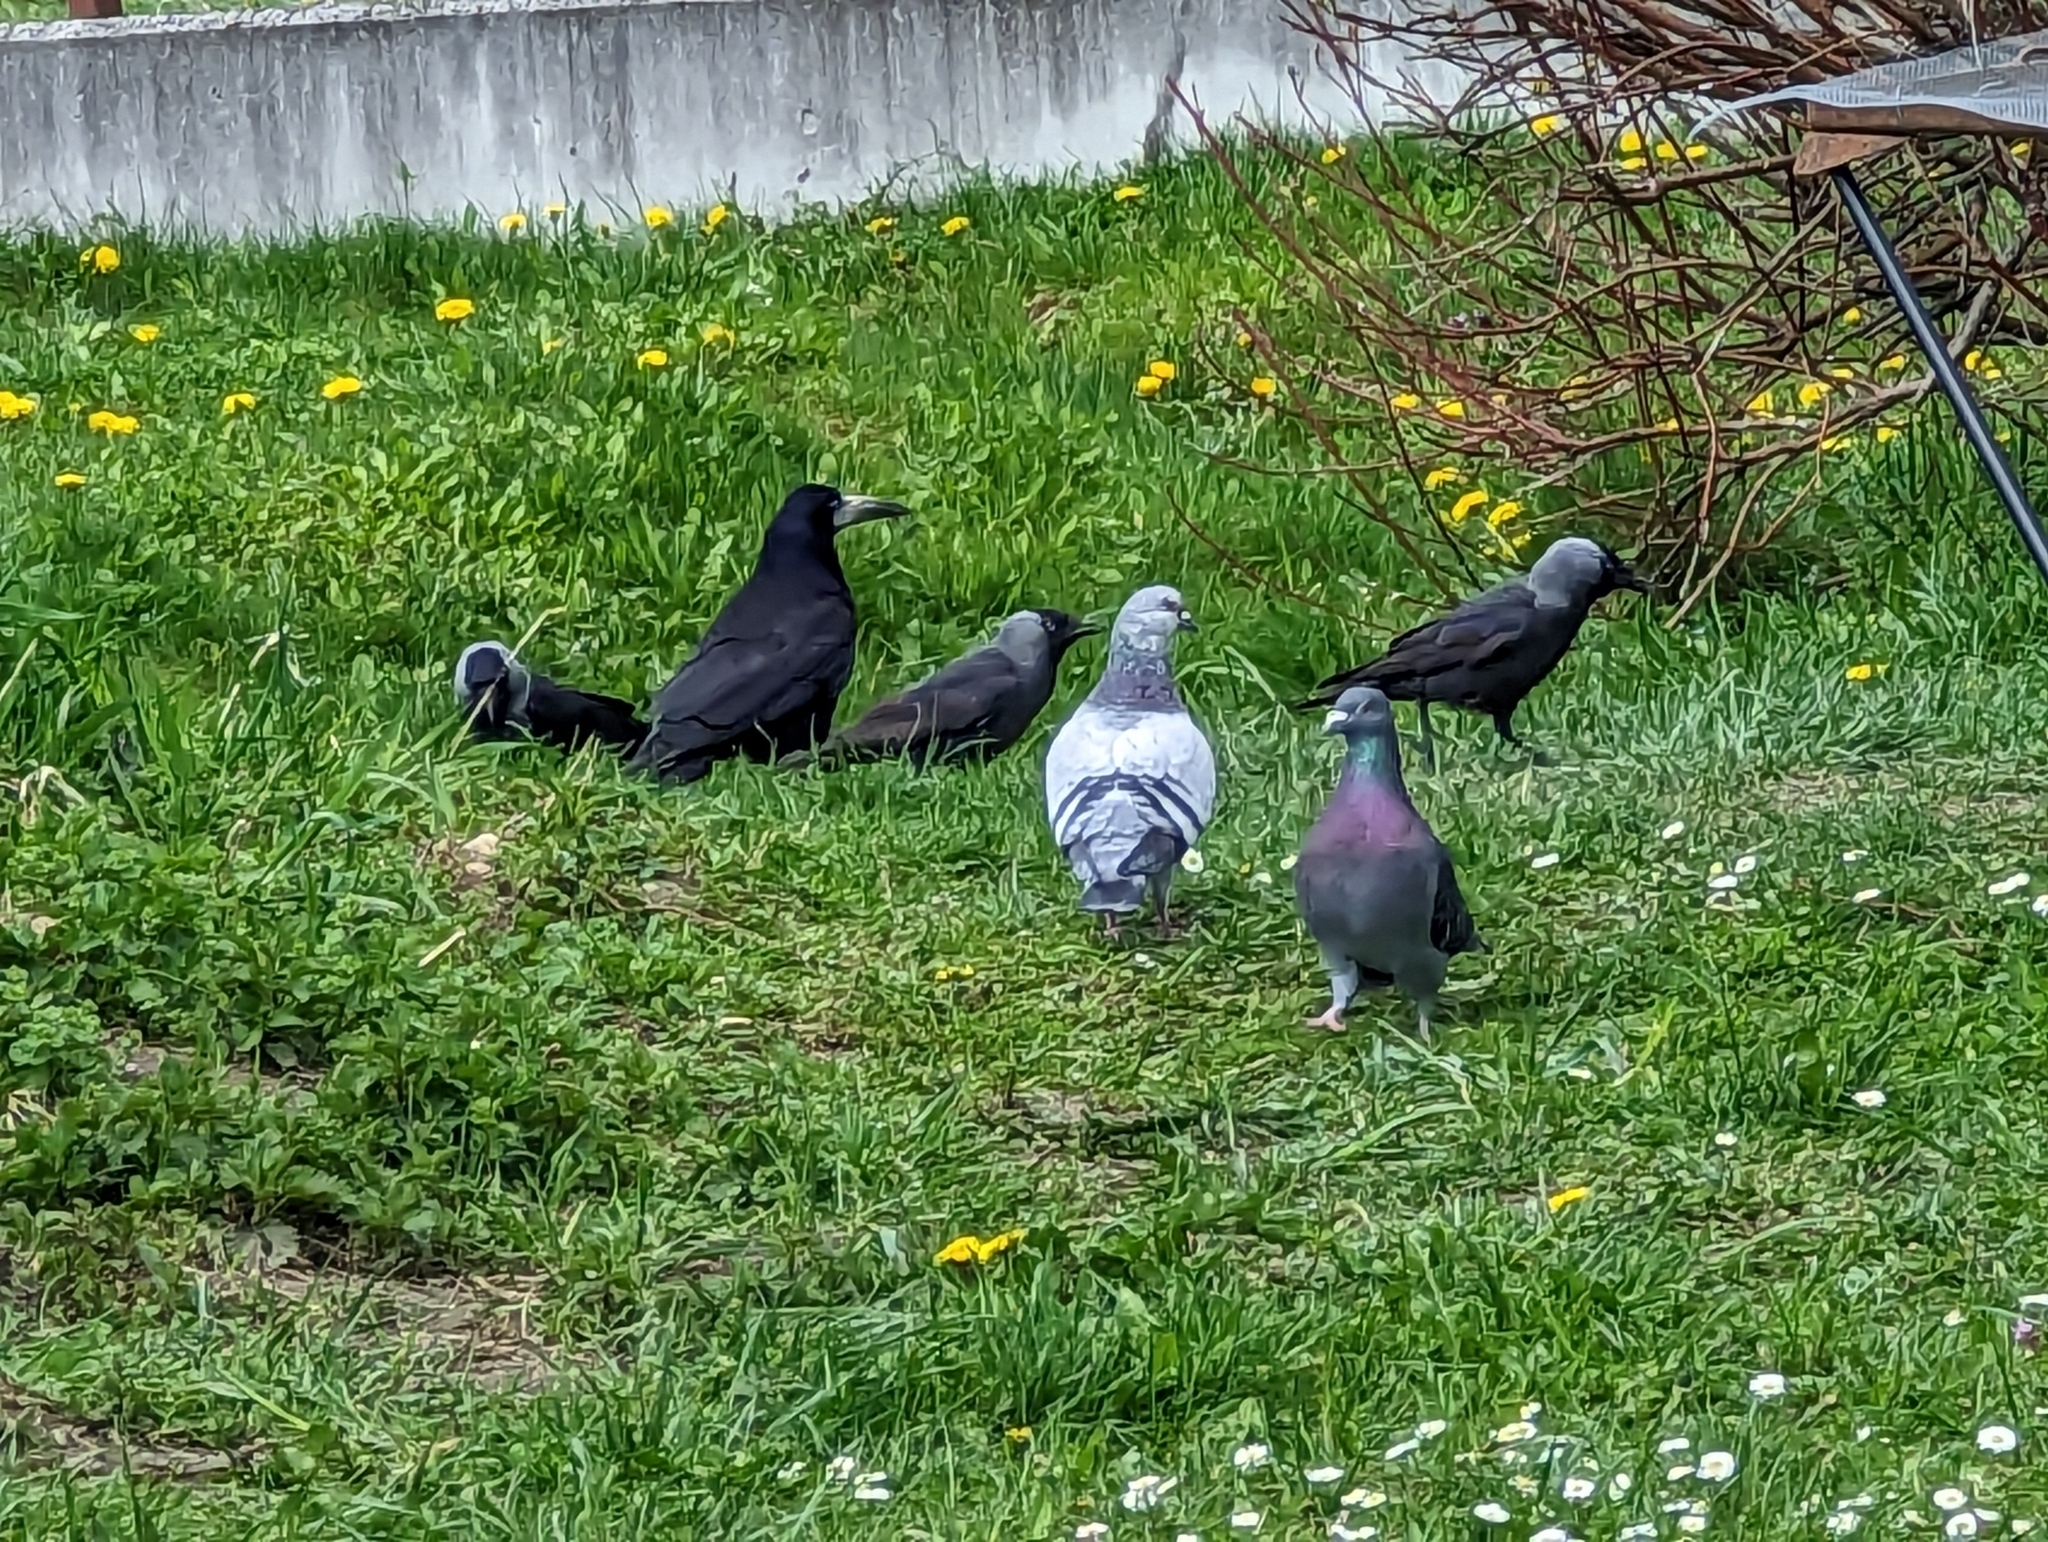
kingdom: Animalia
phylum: Chordata
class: Aves
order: Columbiformes
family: Columbidae
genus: Columba
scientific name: Columba livia
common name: Rock pigeon
